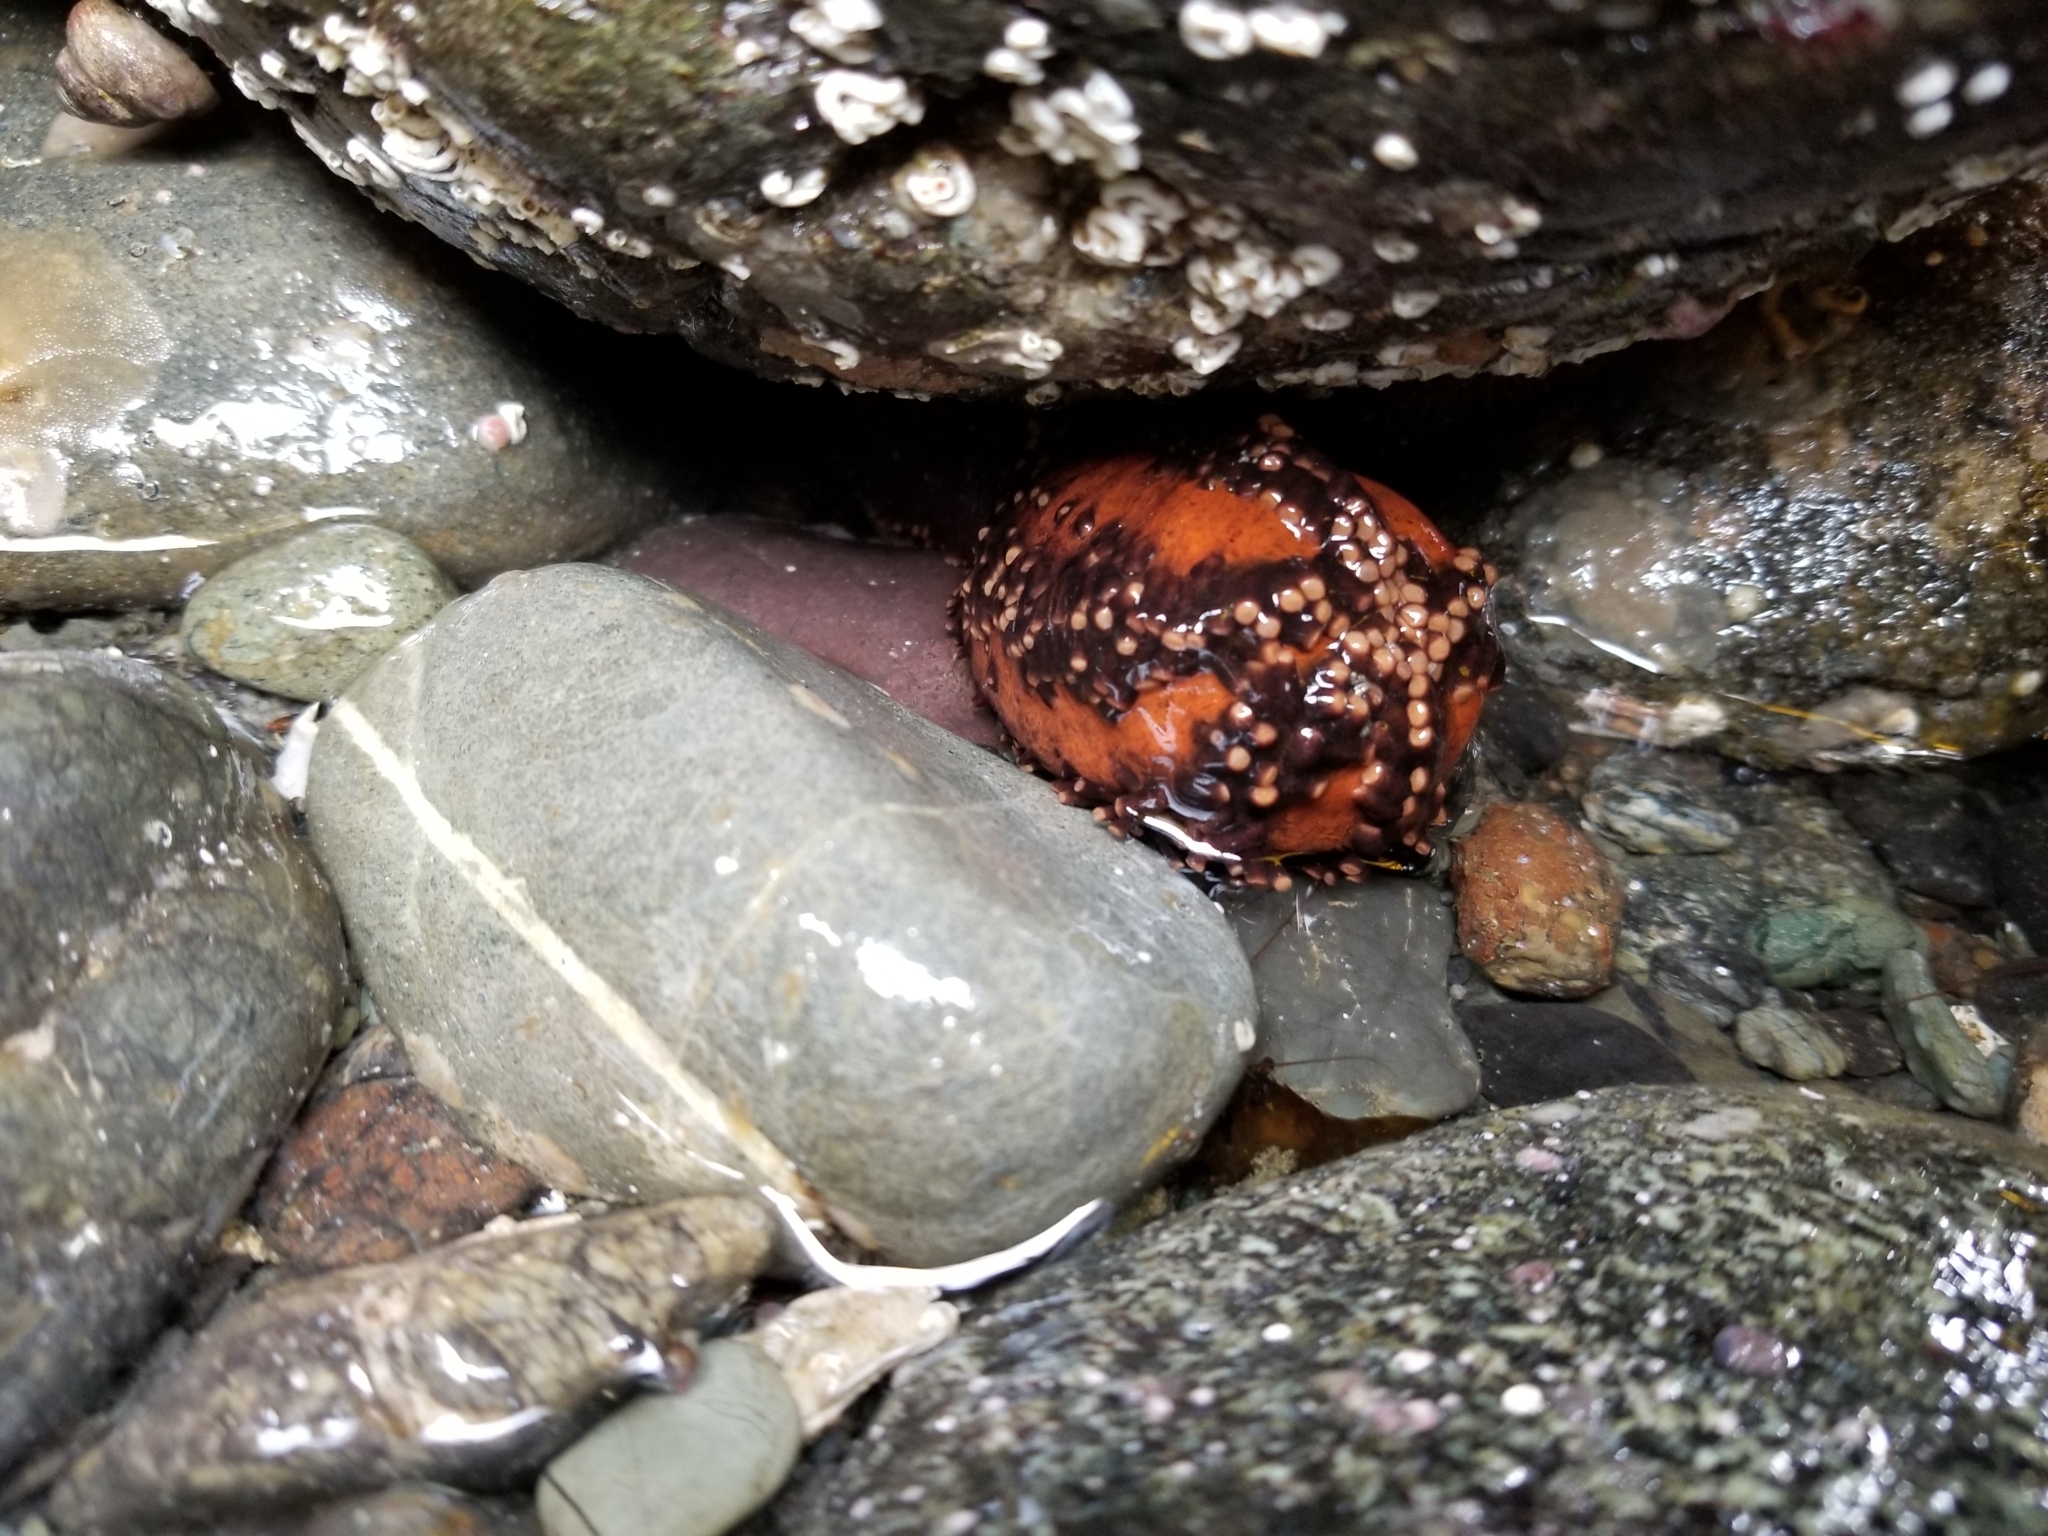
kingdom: Animalia
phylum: Echinodermata
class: Holothuroidea
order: Dendrochirotida
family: Cucumariidae
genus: Cucumaria
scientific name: Cucumaria miniata
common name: Orange sea cucumber
